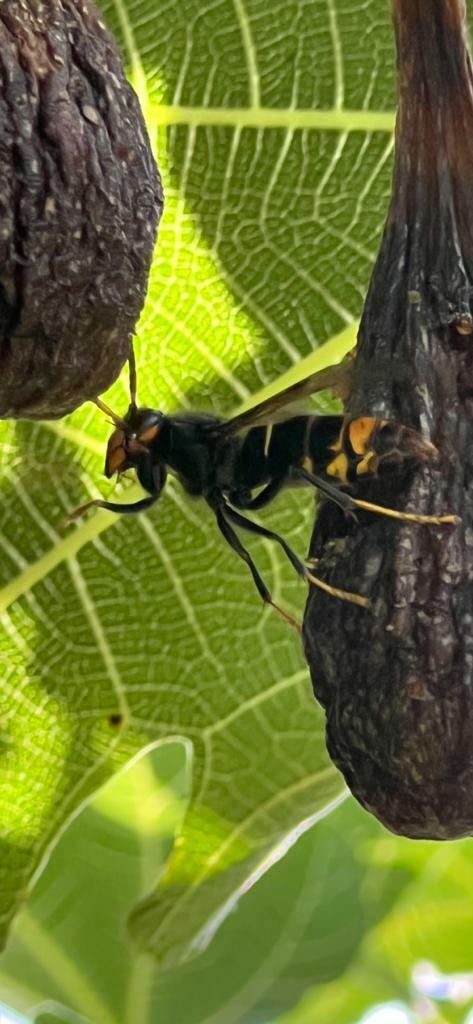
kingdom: Animalia
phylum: Arthropoda
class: Insecta
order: Hymenoptera
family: Vespidae
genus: Vespa
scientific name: Vespa velutina
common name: Asian hornet
